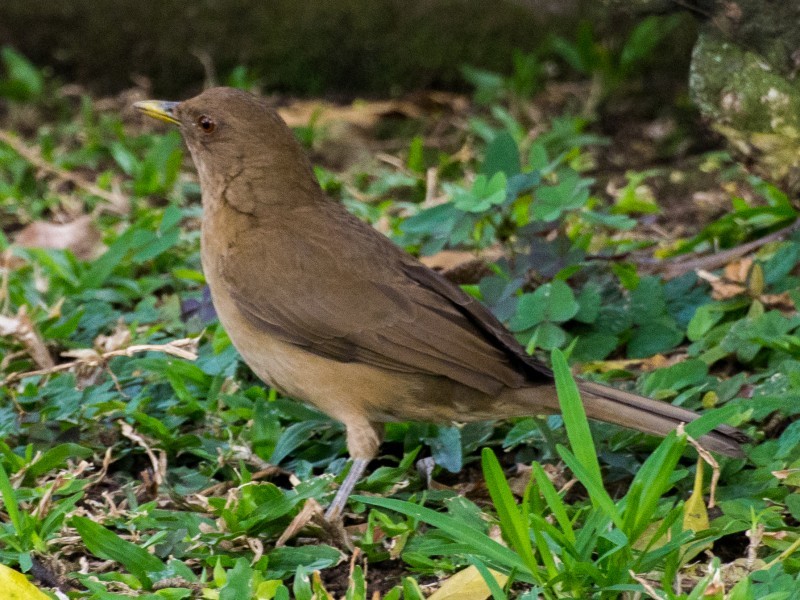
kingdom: Animalia
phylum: Chordata
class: Aves
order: Passeriformes
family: Turdidae
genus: Turdus
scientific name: Turdus grayi
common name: Clay-colored thrush
